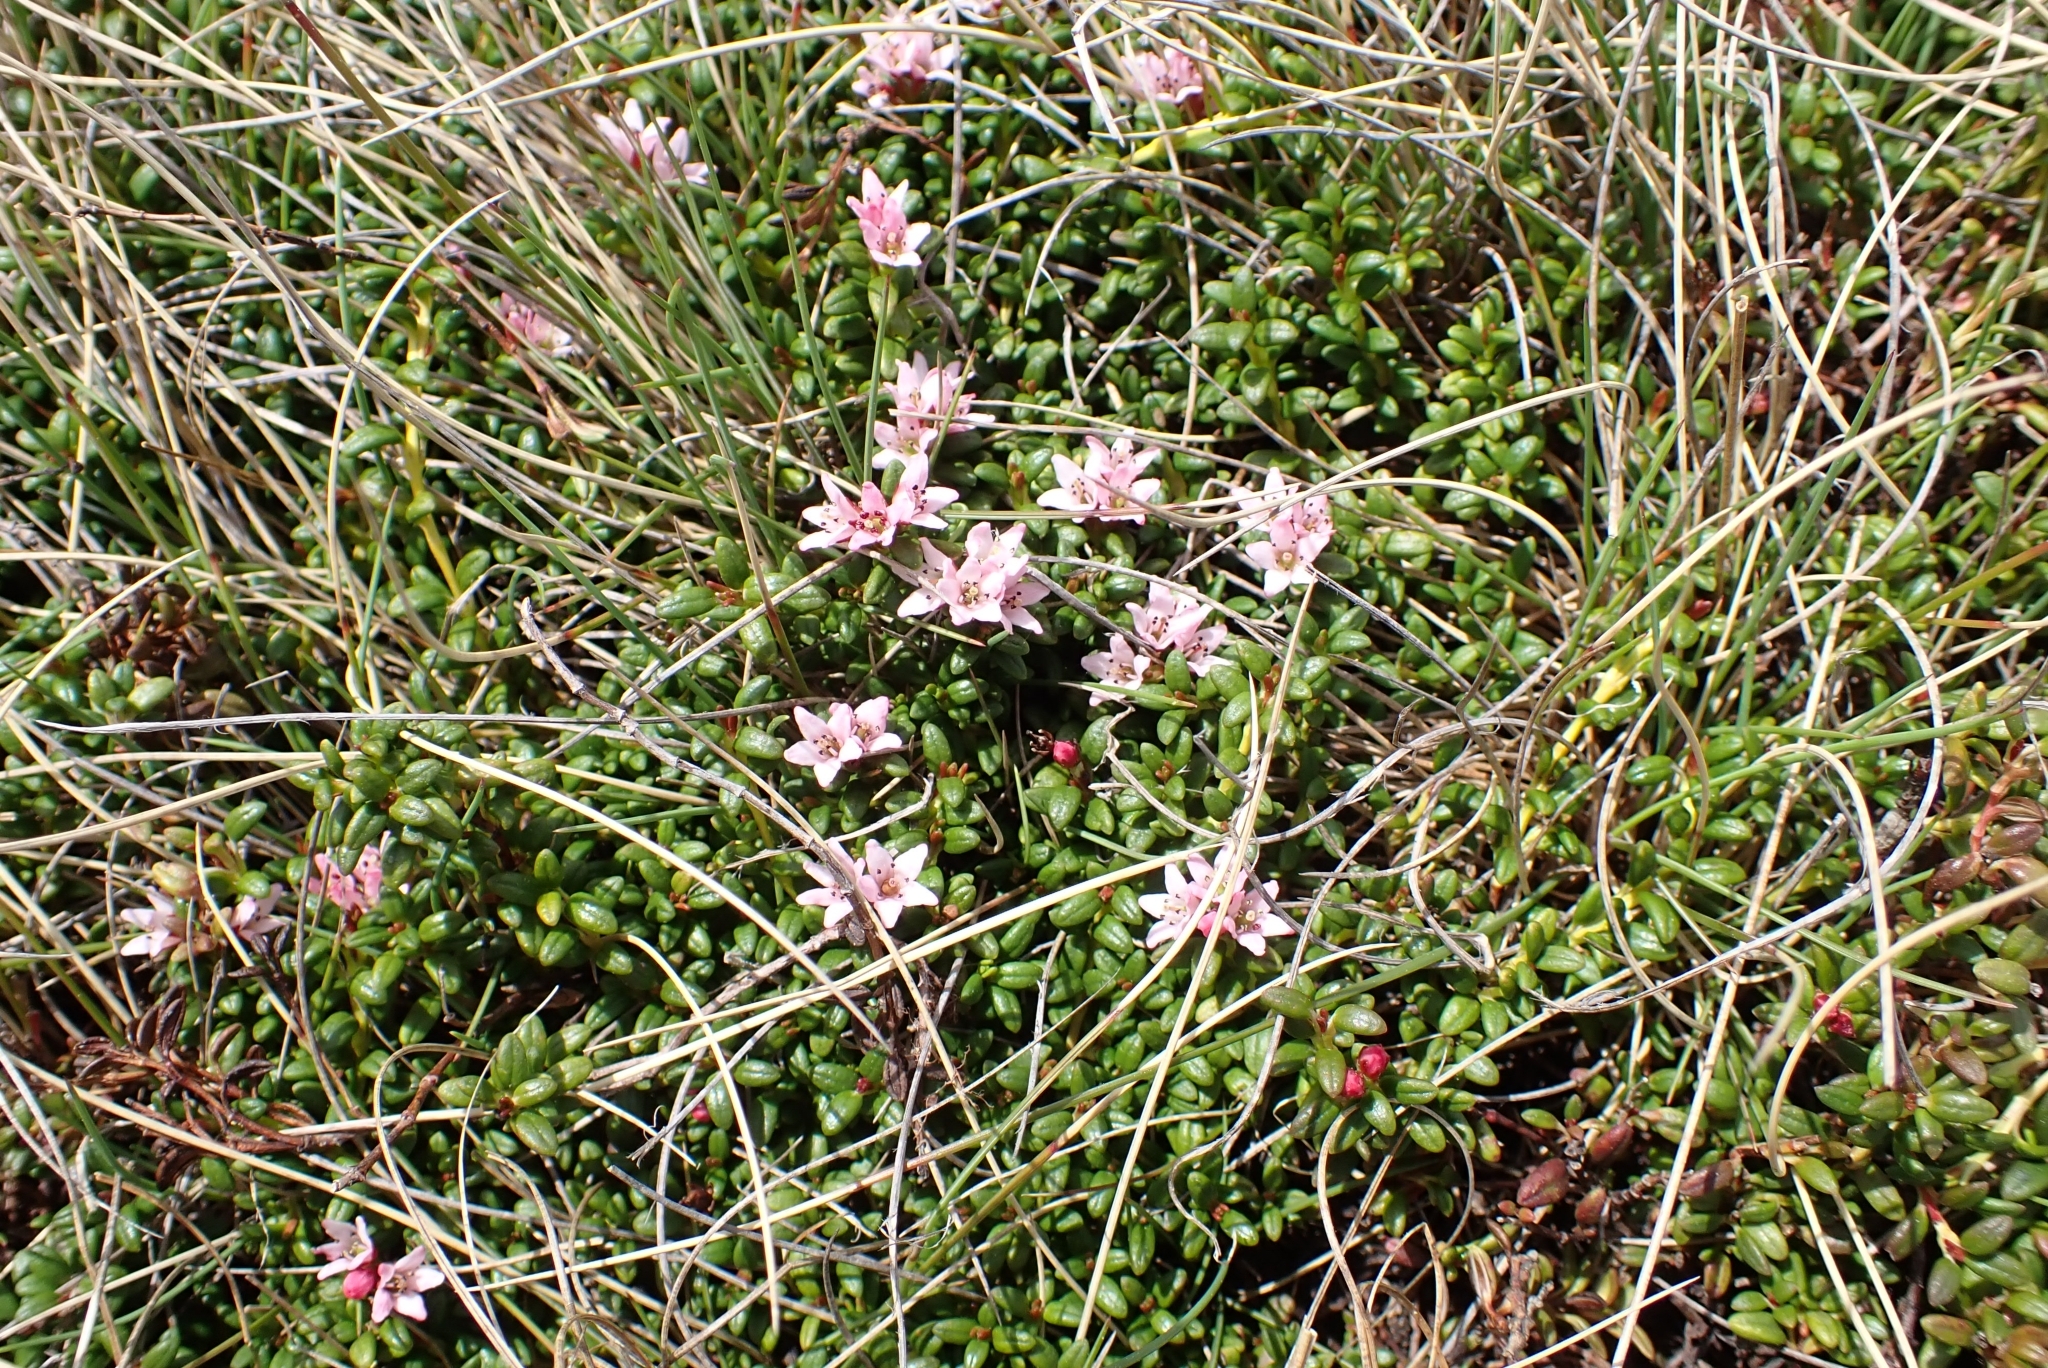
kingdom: Plantae
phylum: Tracheophyta
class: Magnoliopsida
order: Ericales
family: Ericaceae
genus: Kalmia
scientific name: Kalmia procumbens
